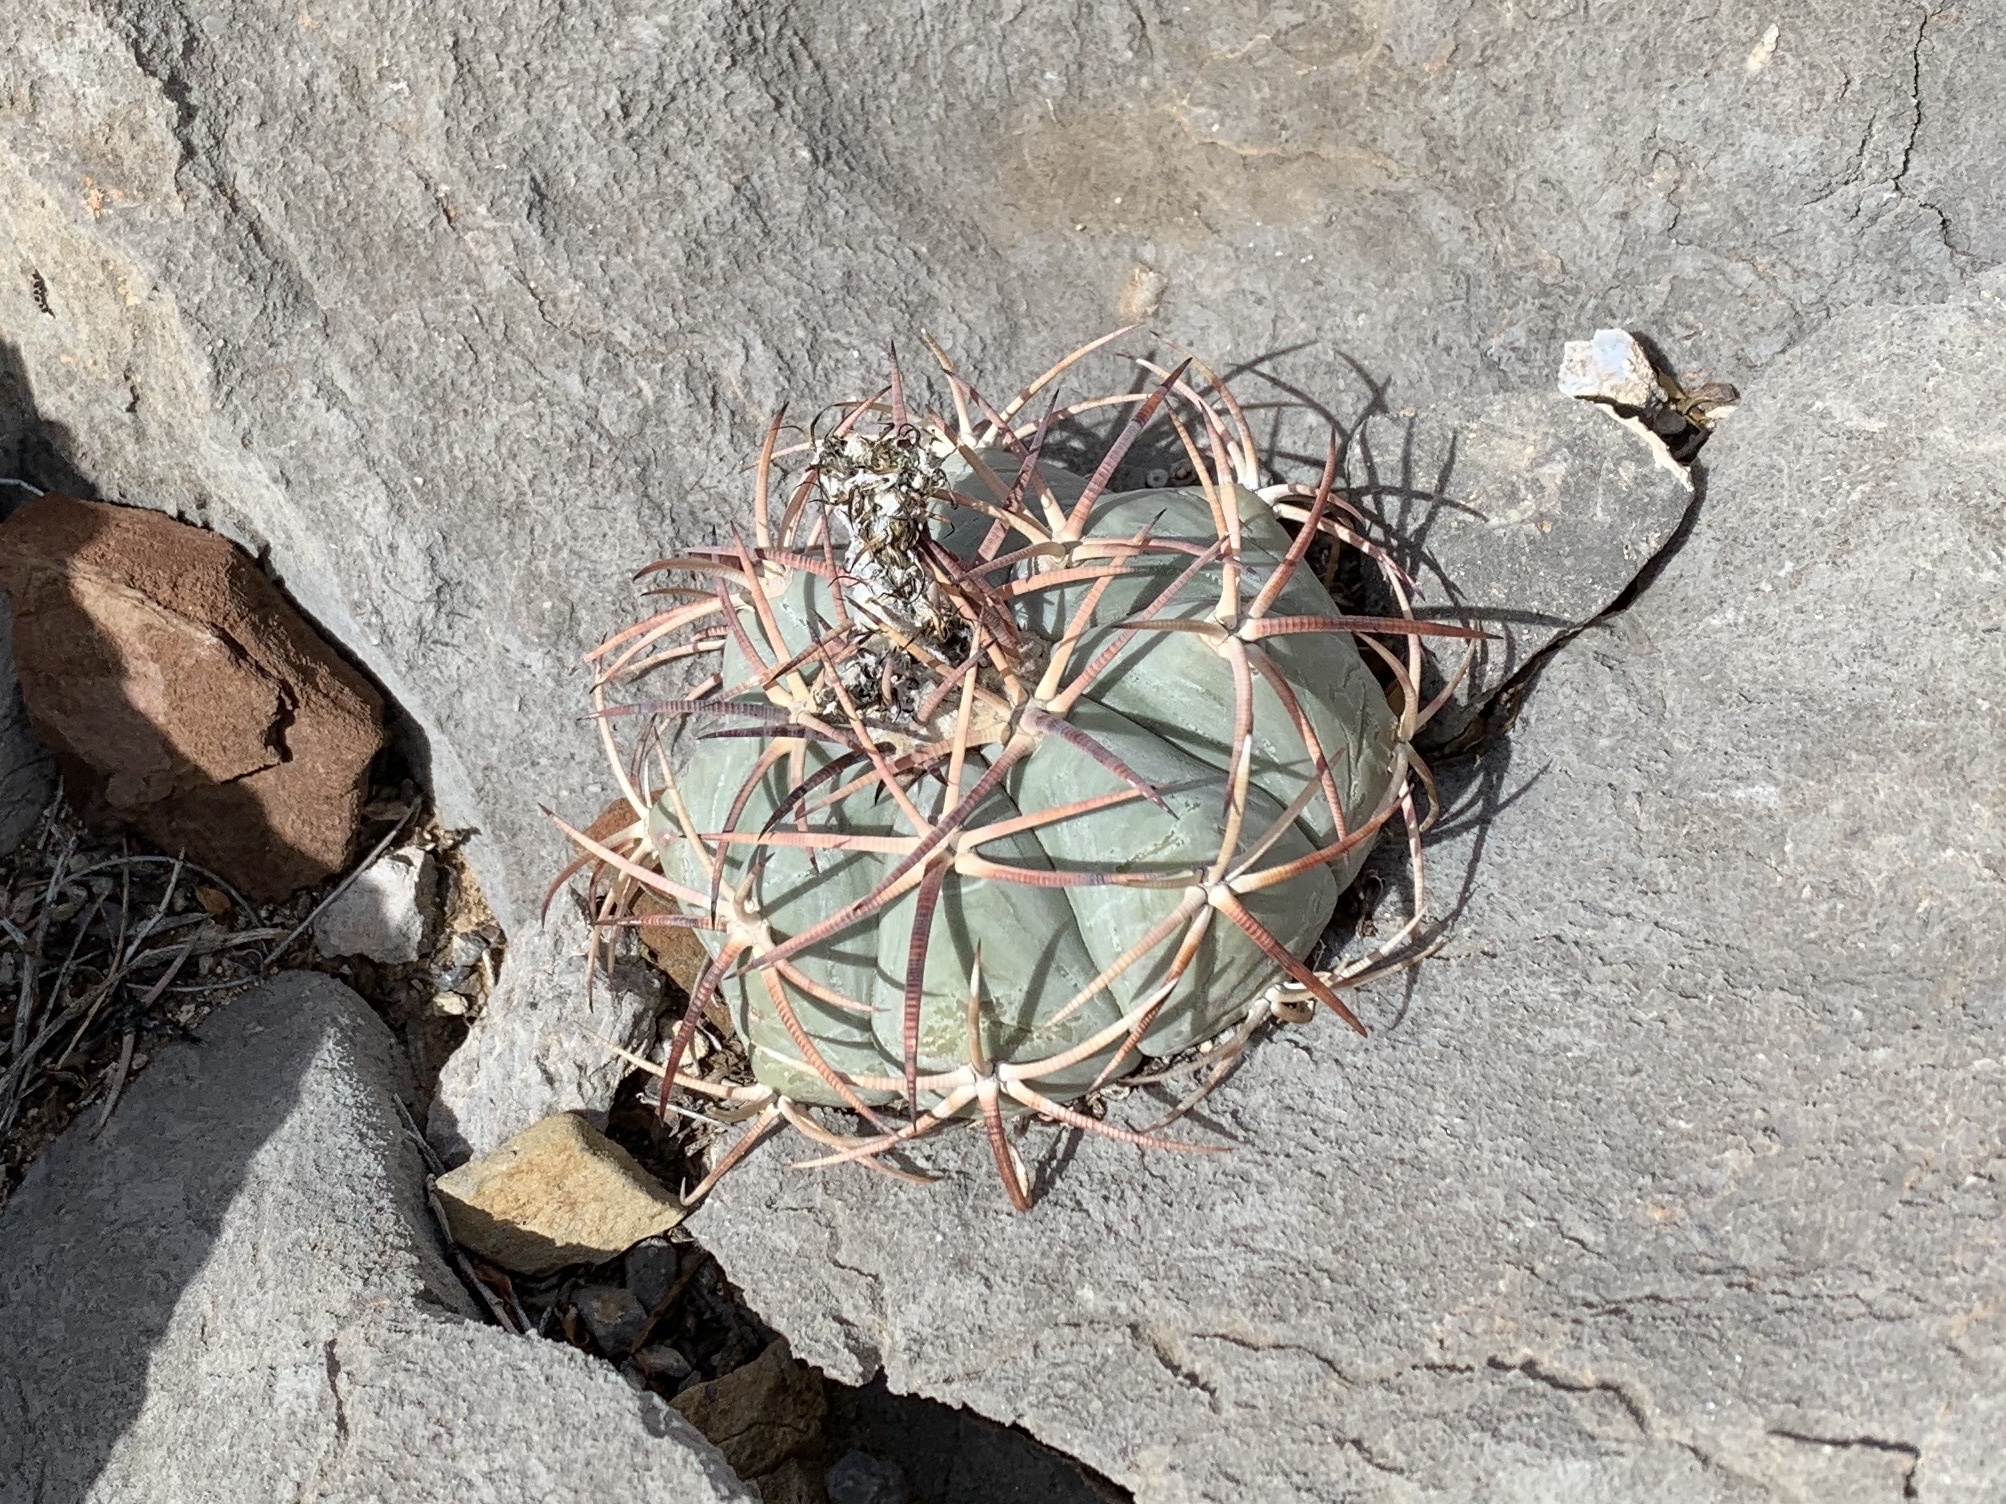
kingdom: Plantae
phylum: Tracheophyta
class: Magnoliopsida
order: Caryophyllales
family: Cactaceae
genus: Echinocactus
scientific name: Echinocactus horizonthalonius
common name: Devilshead
